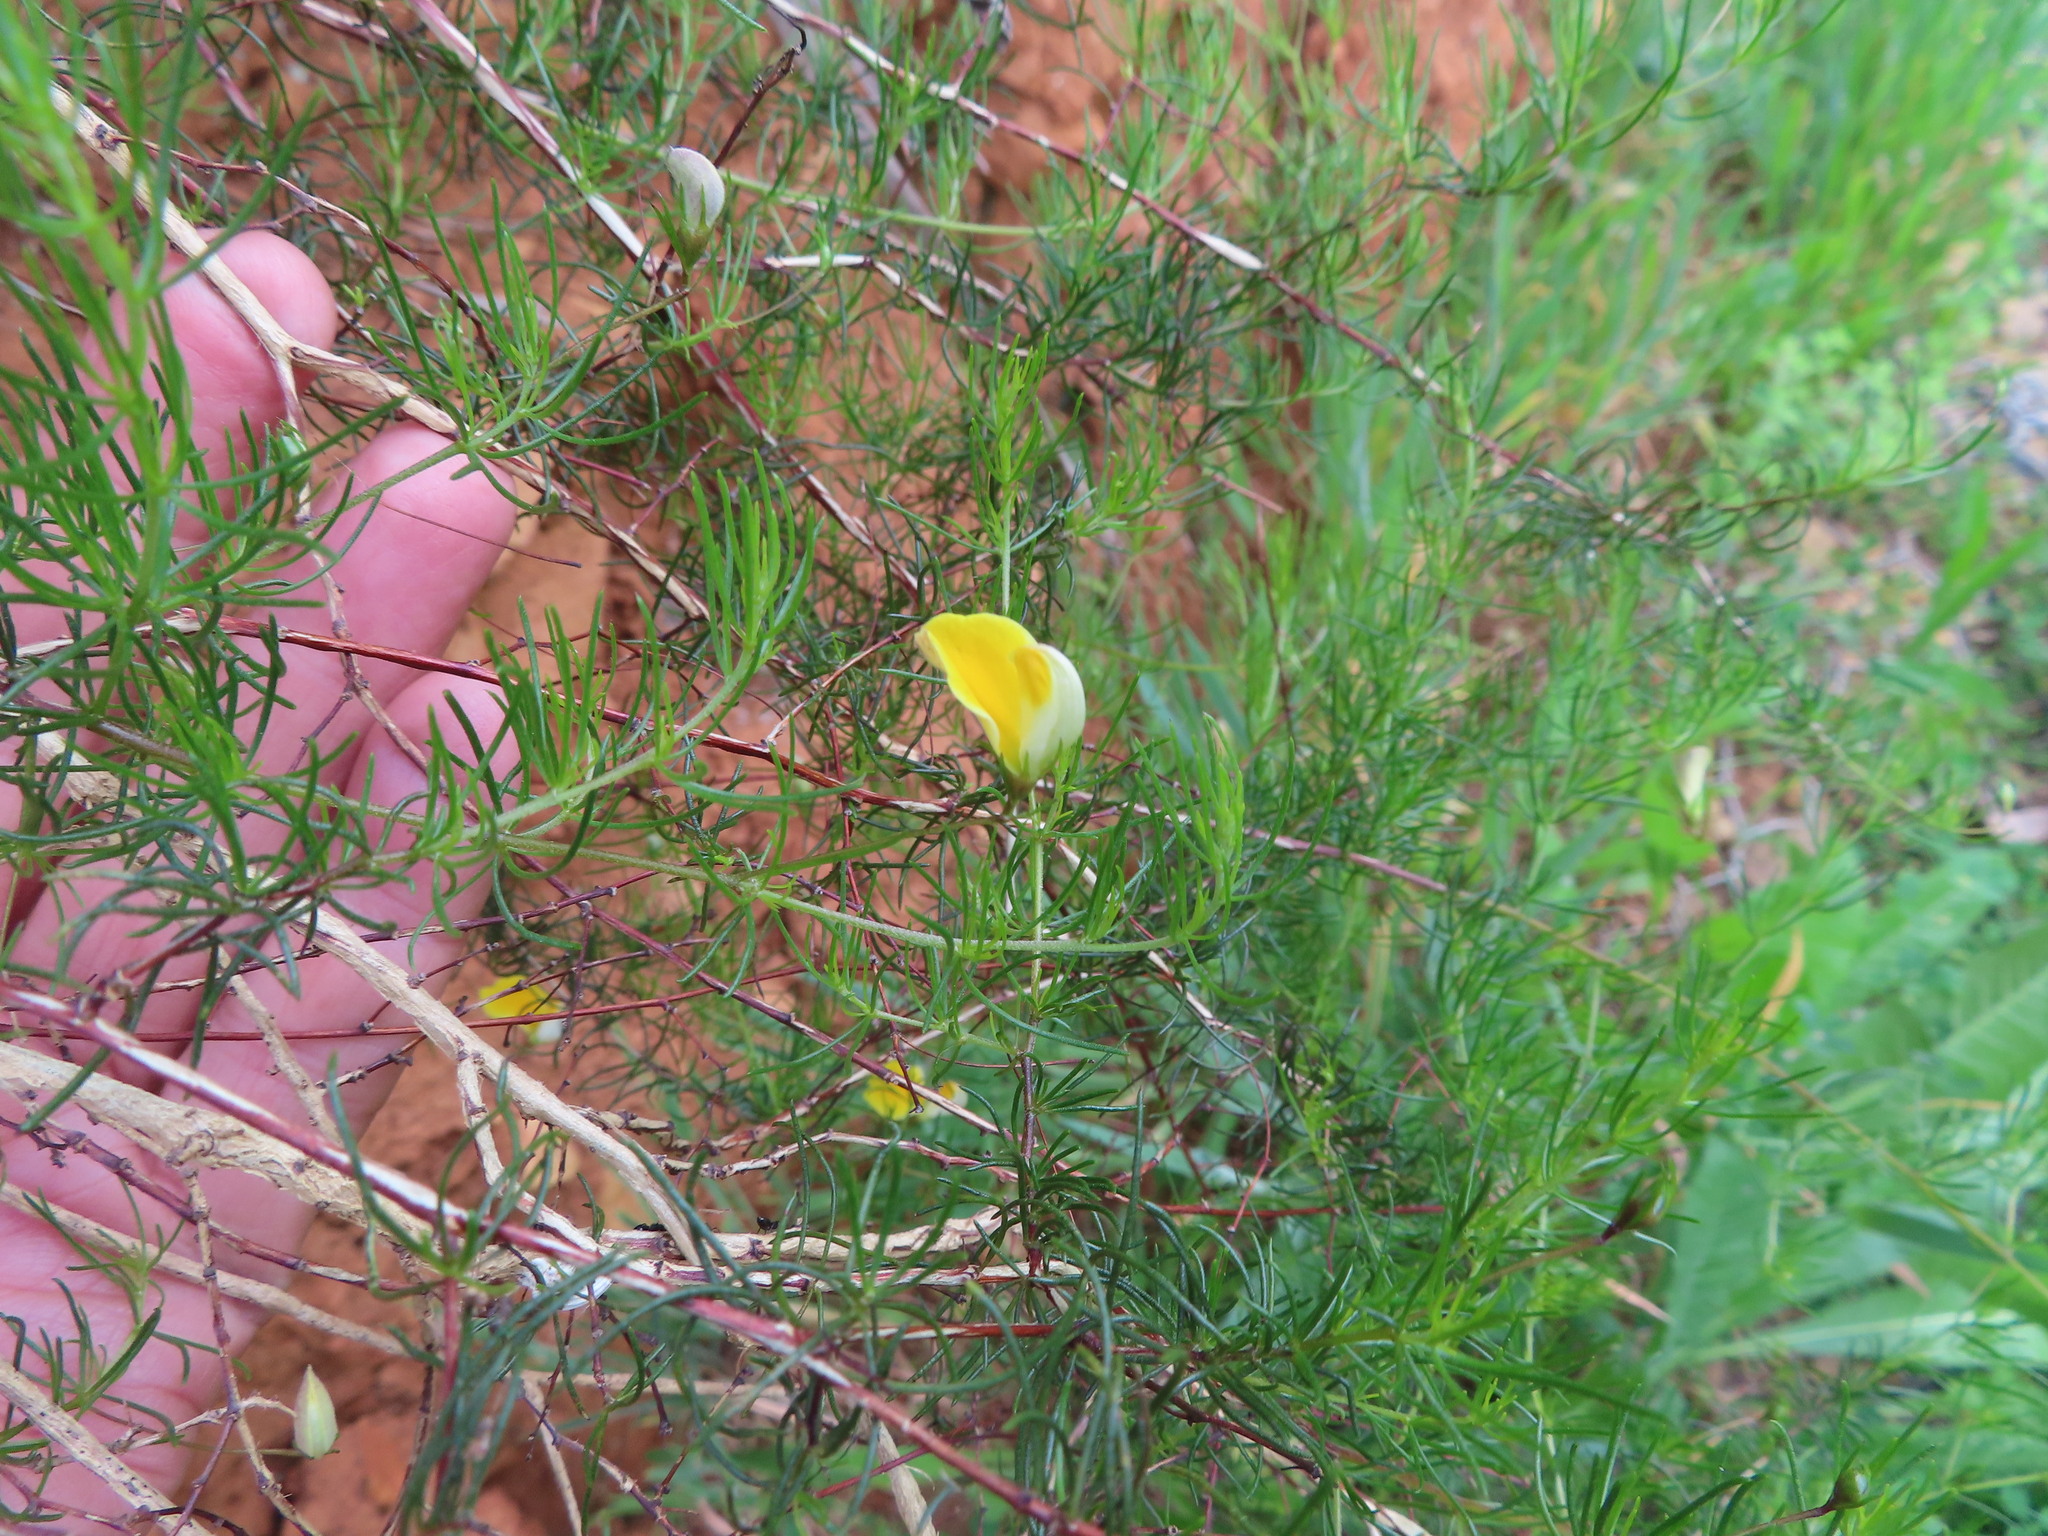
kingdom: Plantae
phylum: Tracheophyta
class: Magnoliopsida
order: Fabales
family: Fabaceae
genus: Aspalathus
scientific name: Aspalathus bracteata
